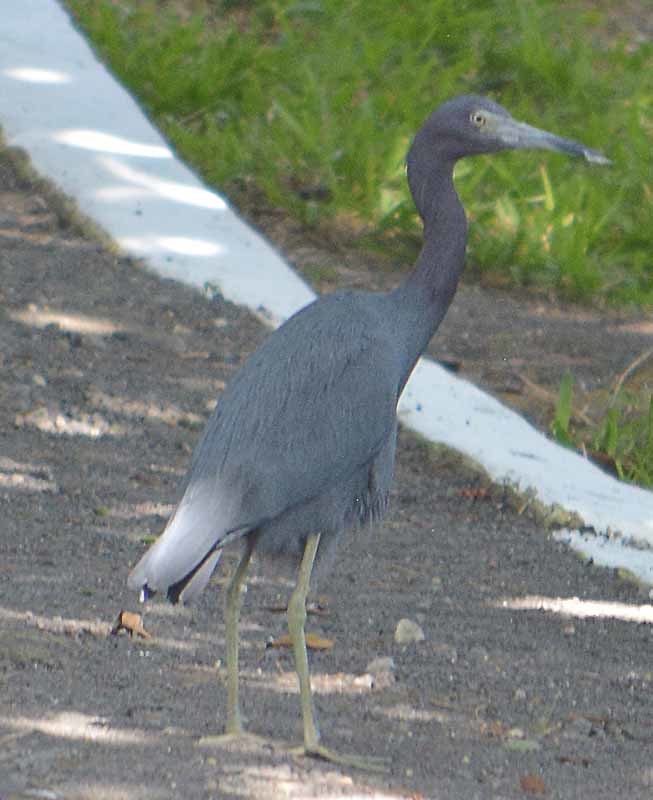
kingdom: Animalia
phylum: Chordata
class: Aves
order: Pelecaniformes
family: Ardeidae
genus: Egretta
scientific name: Egretta caerulea
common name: Little blue heron
